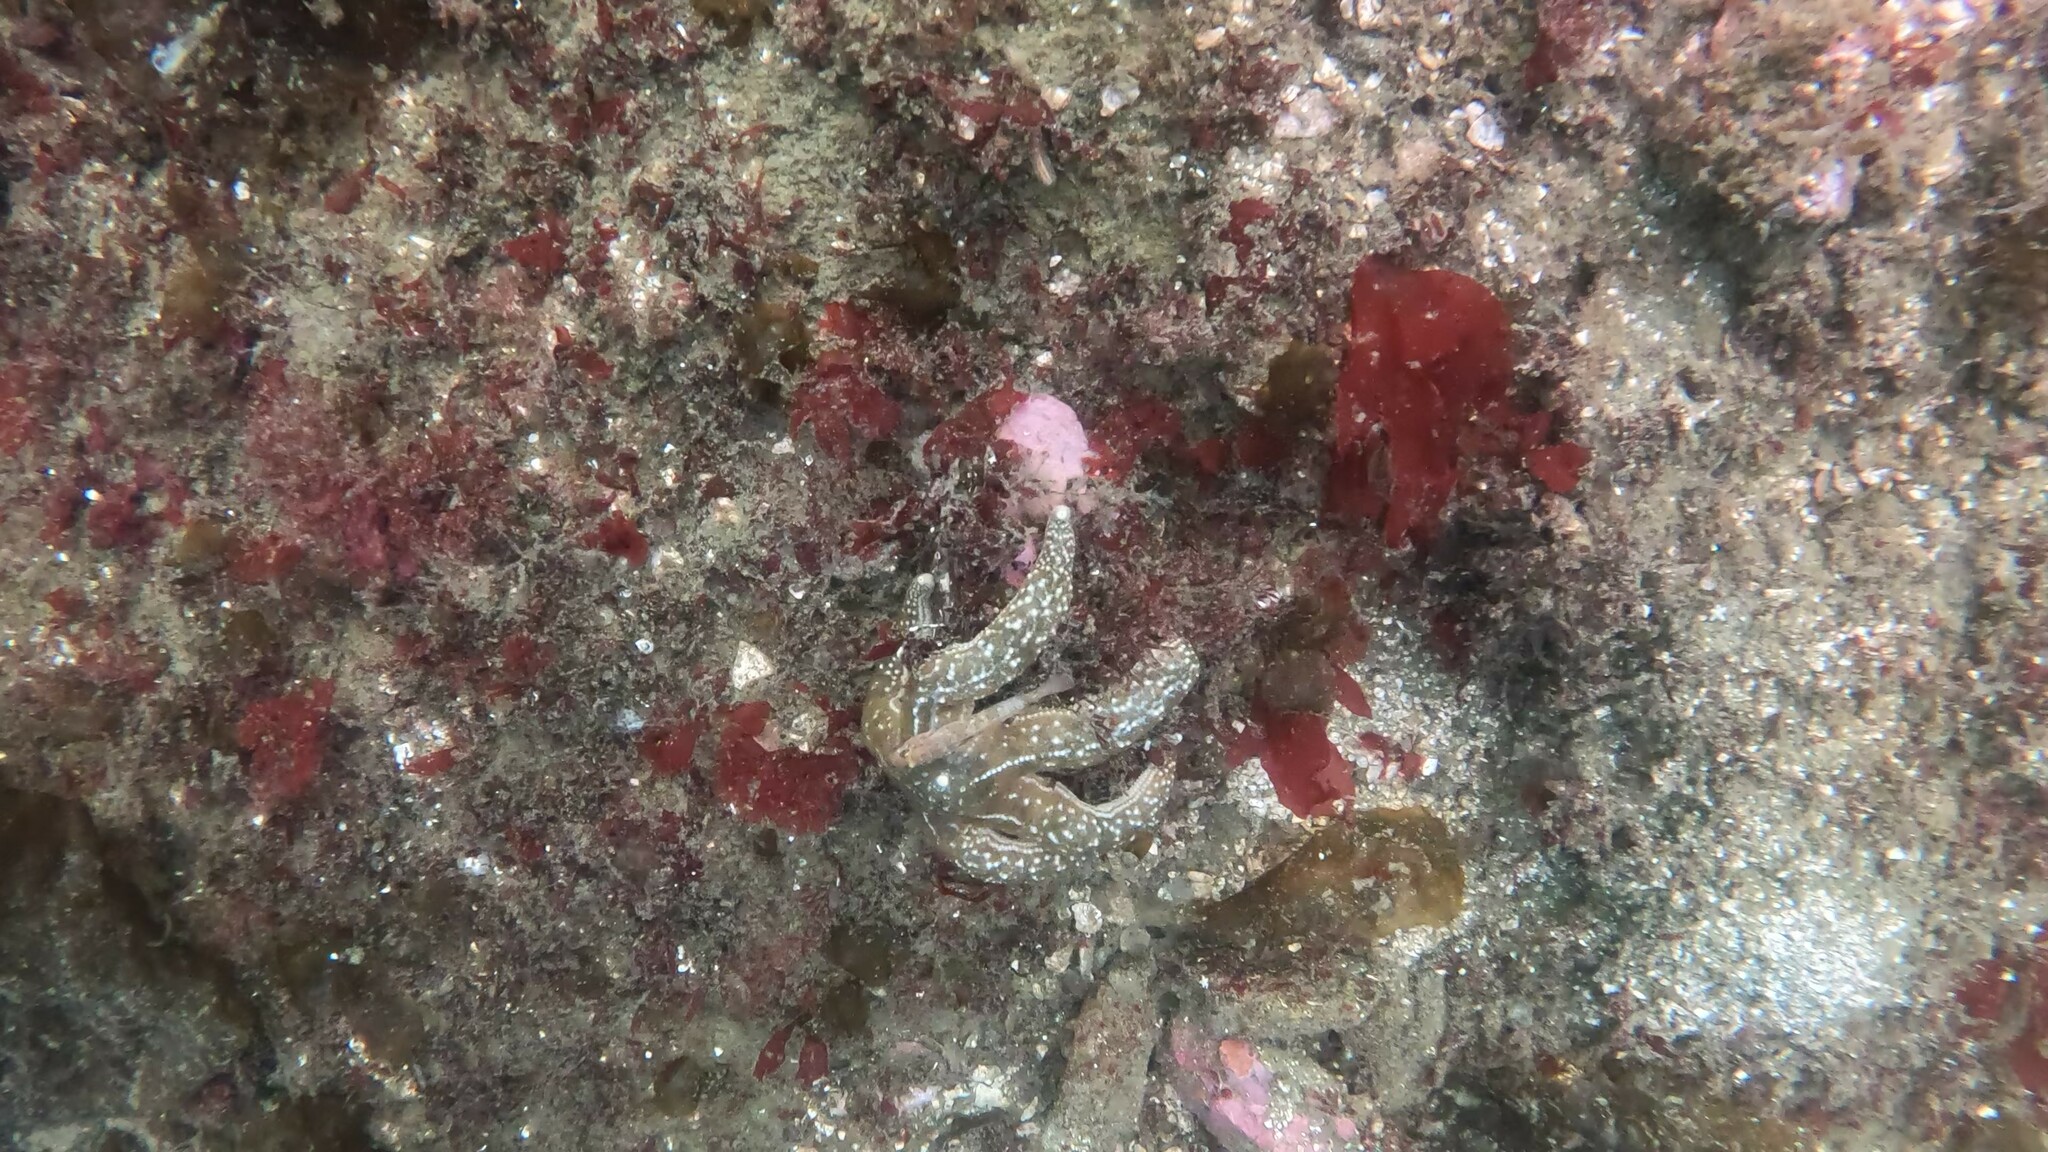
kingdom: Animalia
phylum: Echinodermata
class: Asteroidea
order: Forcipulatida
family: Asteriidae
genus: Evasterias
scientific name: Evasterias troschelii
